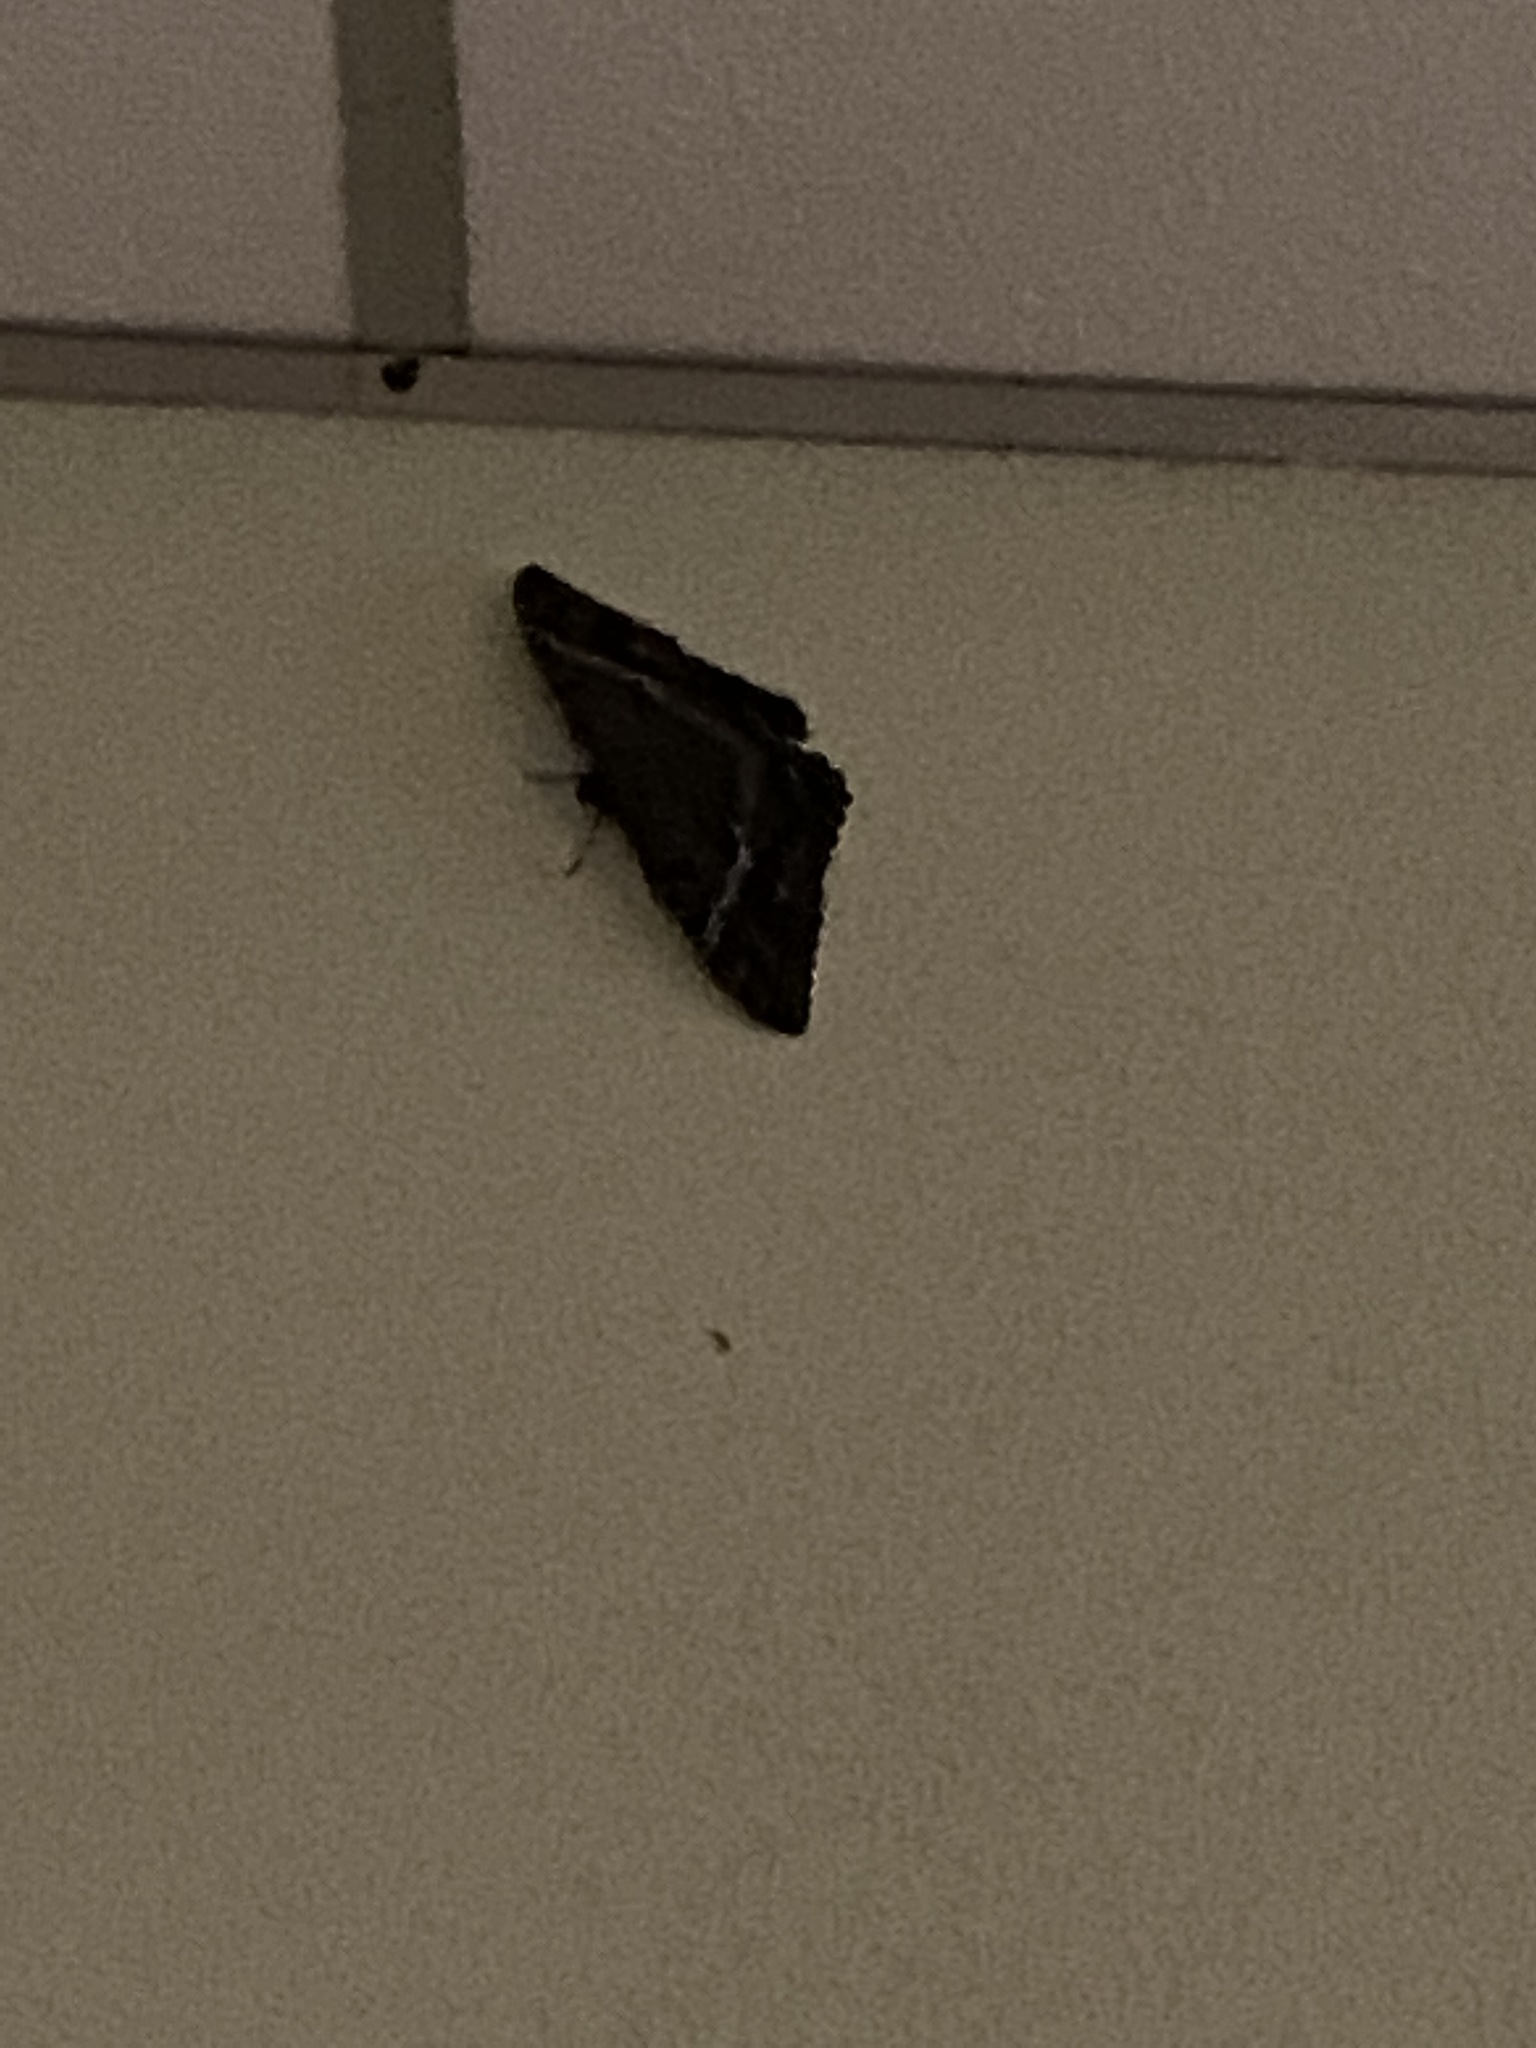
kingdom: Animalia
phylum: Arthropoda
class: Insecta
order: Lepidoptera
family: Erebidae
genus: Ascalapha
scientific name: Ascalapha odorata
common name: Black witch
